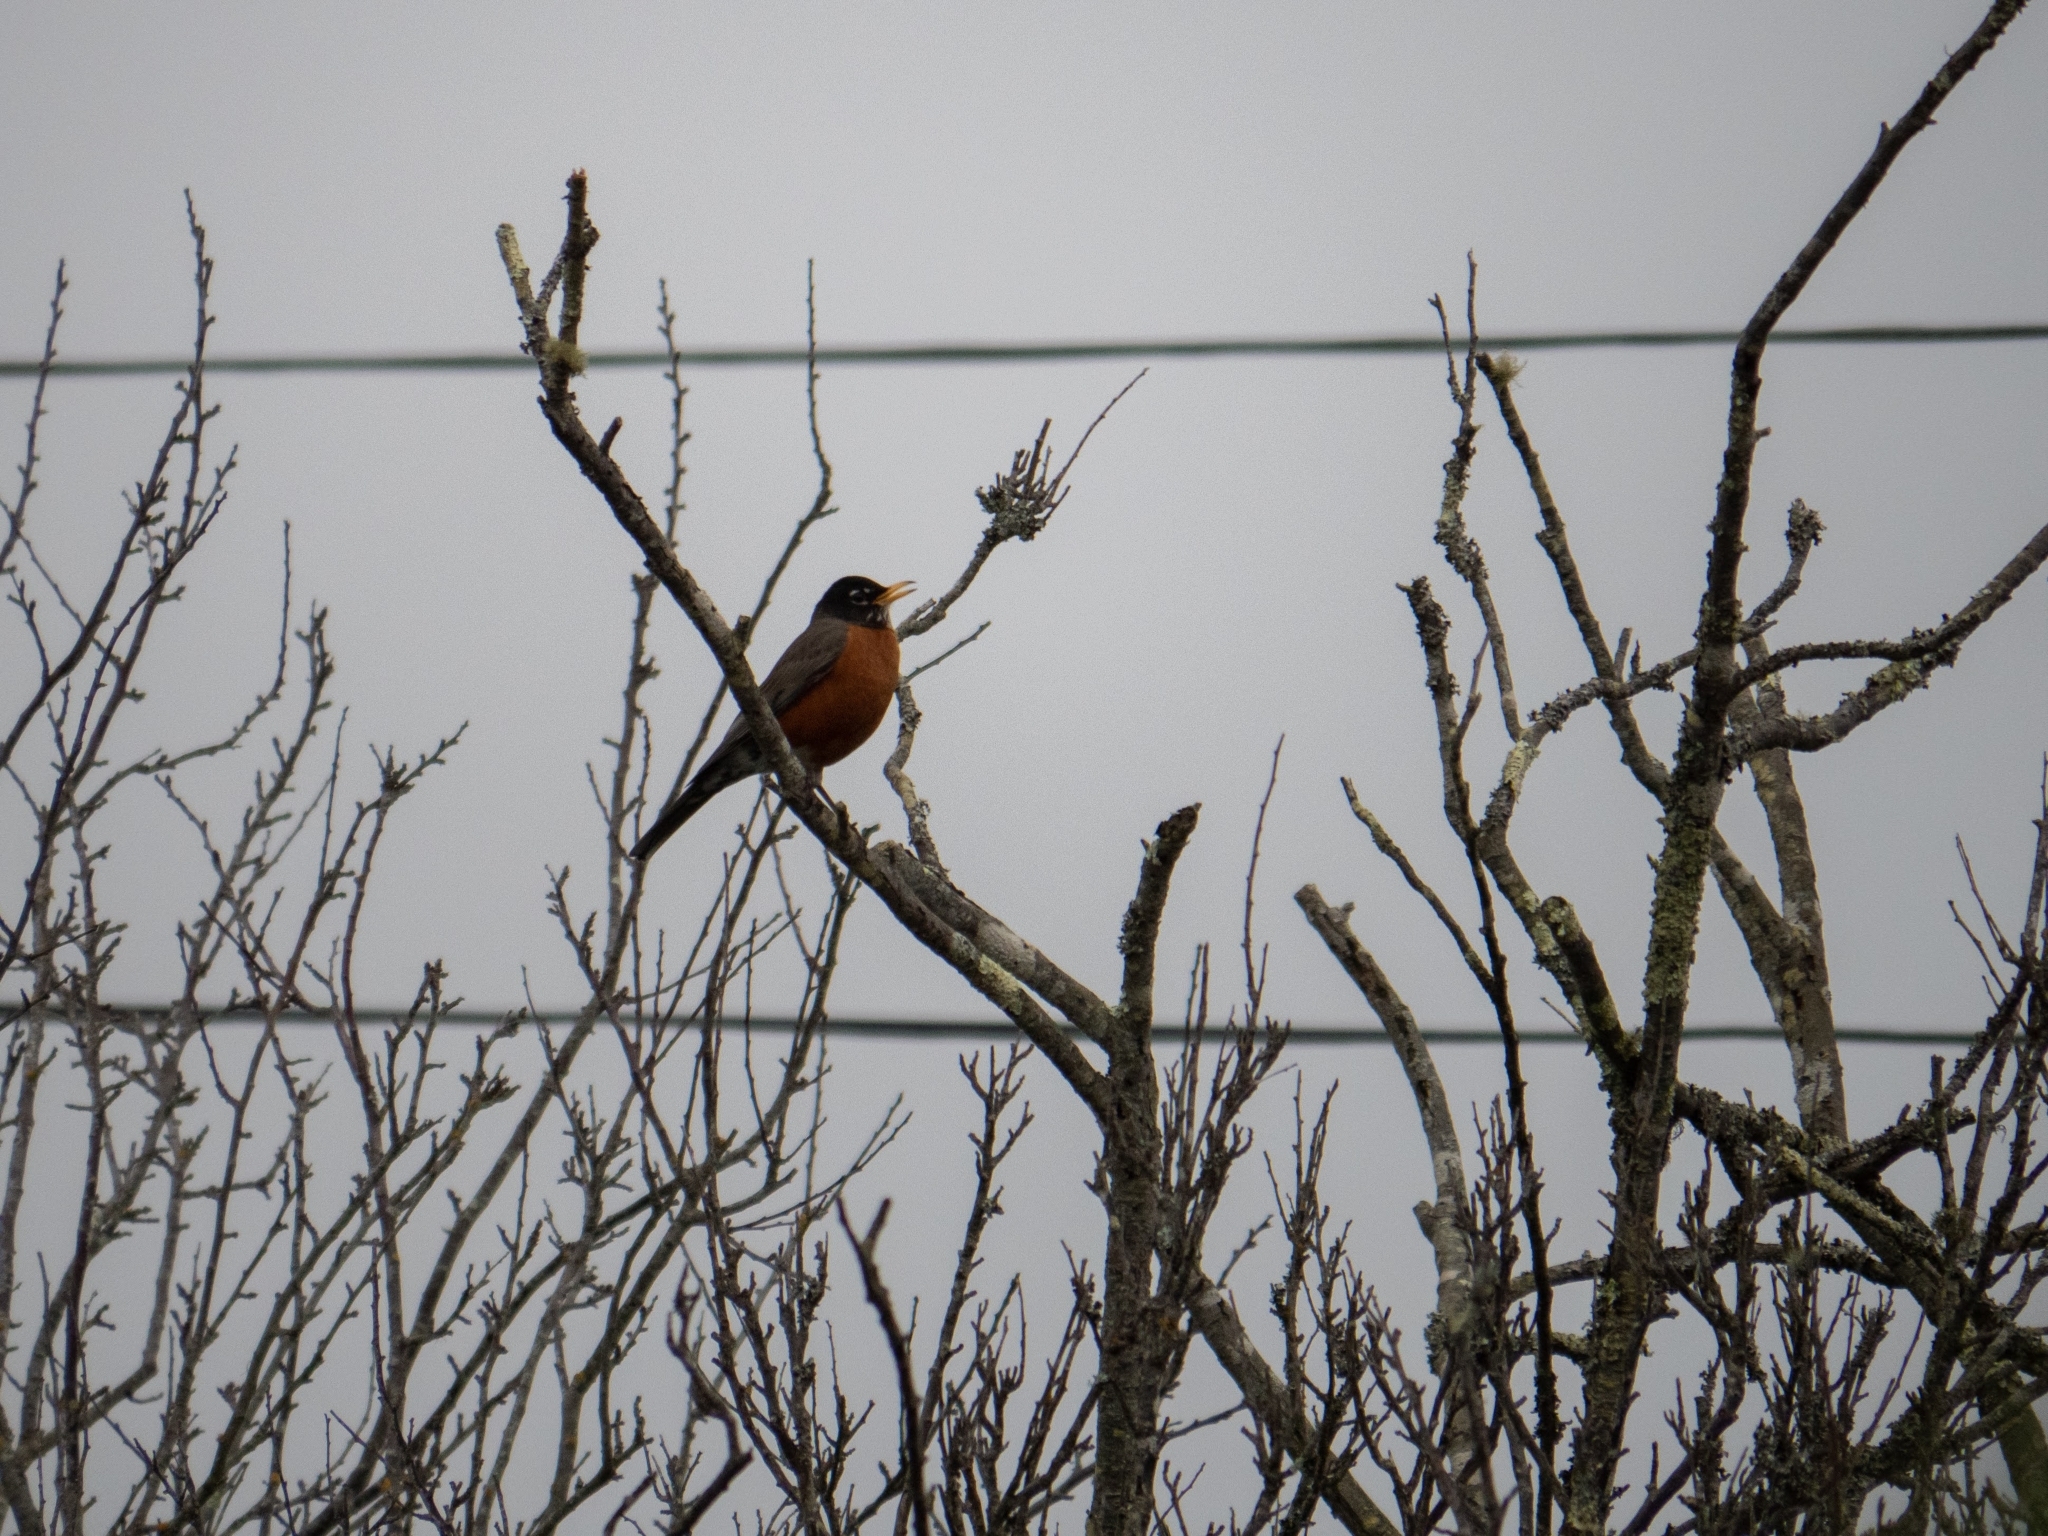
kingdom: Animalia
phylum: Chordata
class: Aves
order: Passeriformes
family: Turdidae
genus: Turdus
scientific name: Turdus migratorius
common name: American robin
